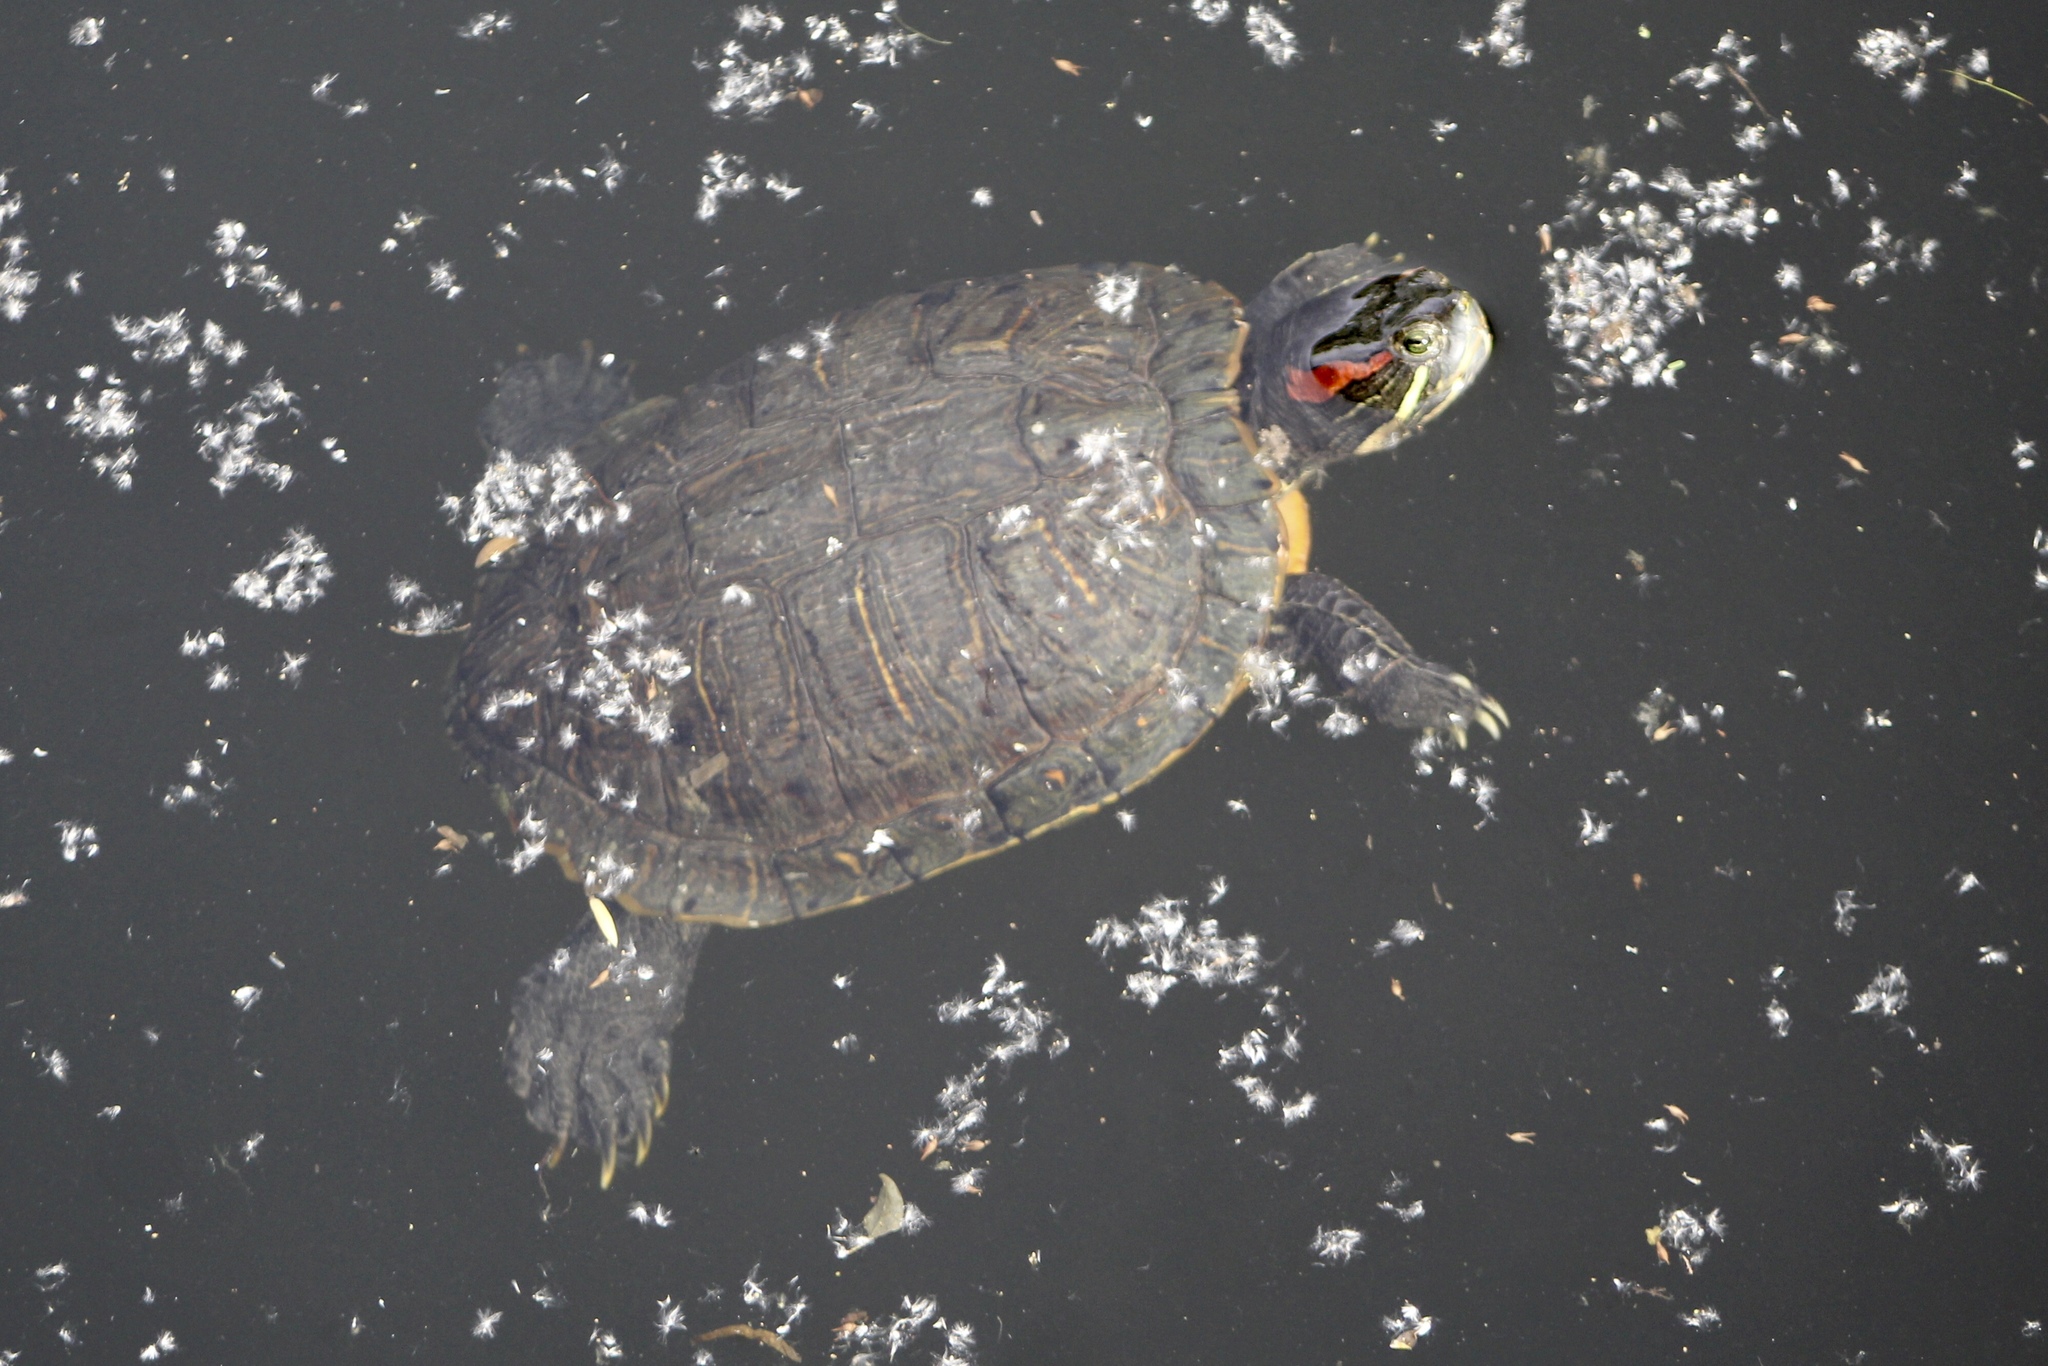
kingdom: Animalia
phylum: Chordata
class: Testudines
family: Emydidae
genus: Trachemys
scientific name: Trachemys scripta
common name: Slider
